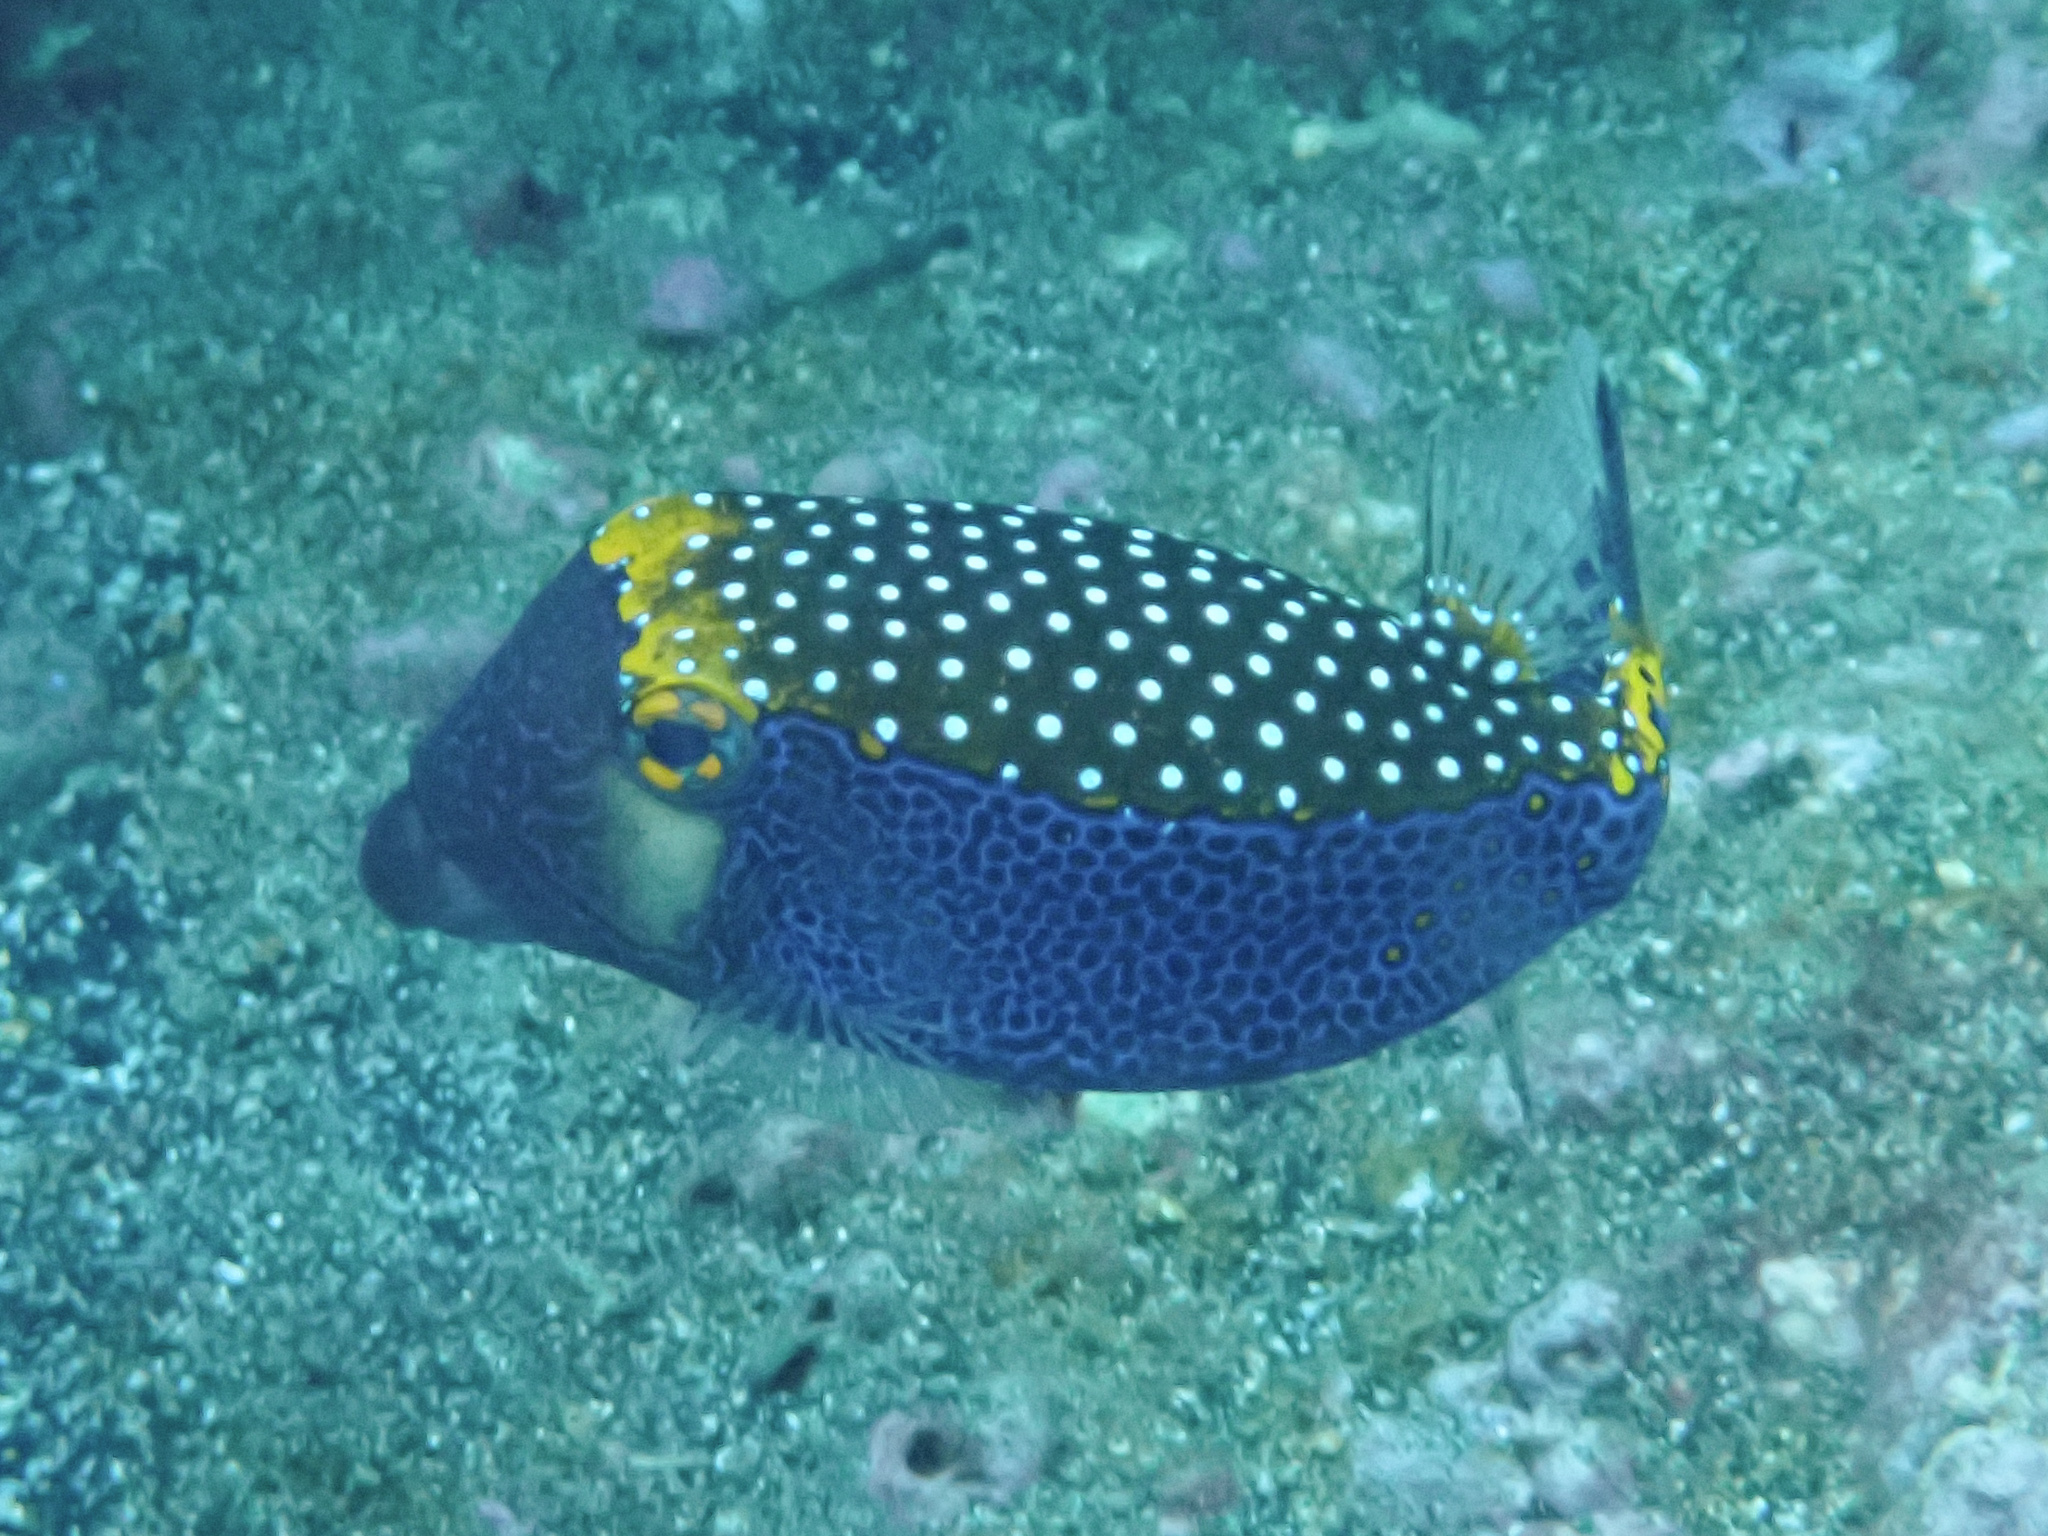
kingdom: Animalia
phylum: Chordata
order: Tetraodontiformes
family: Ostraciidae
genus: Ostracion
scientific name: Ostracion meleagris
